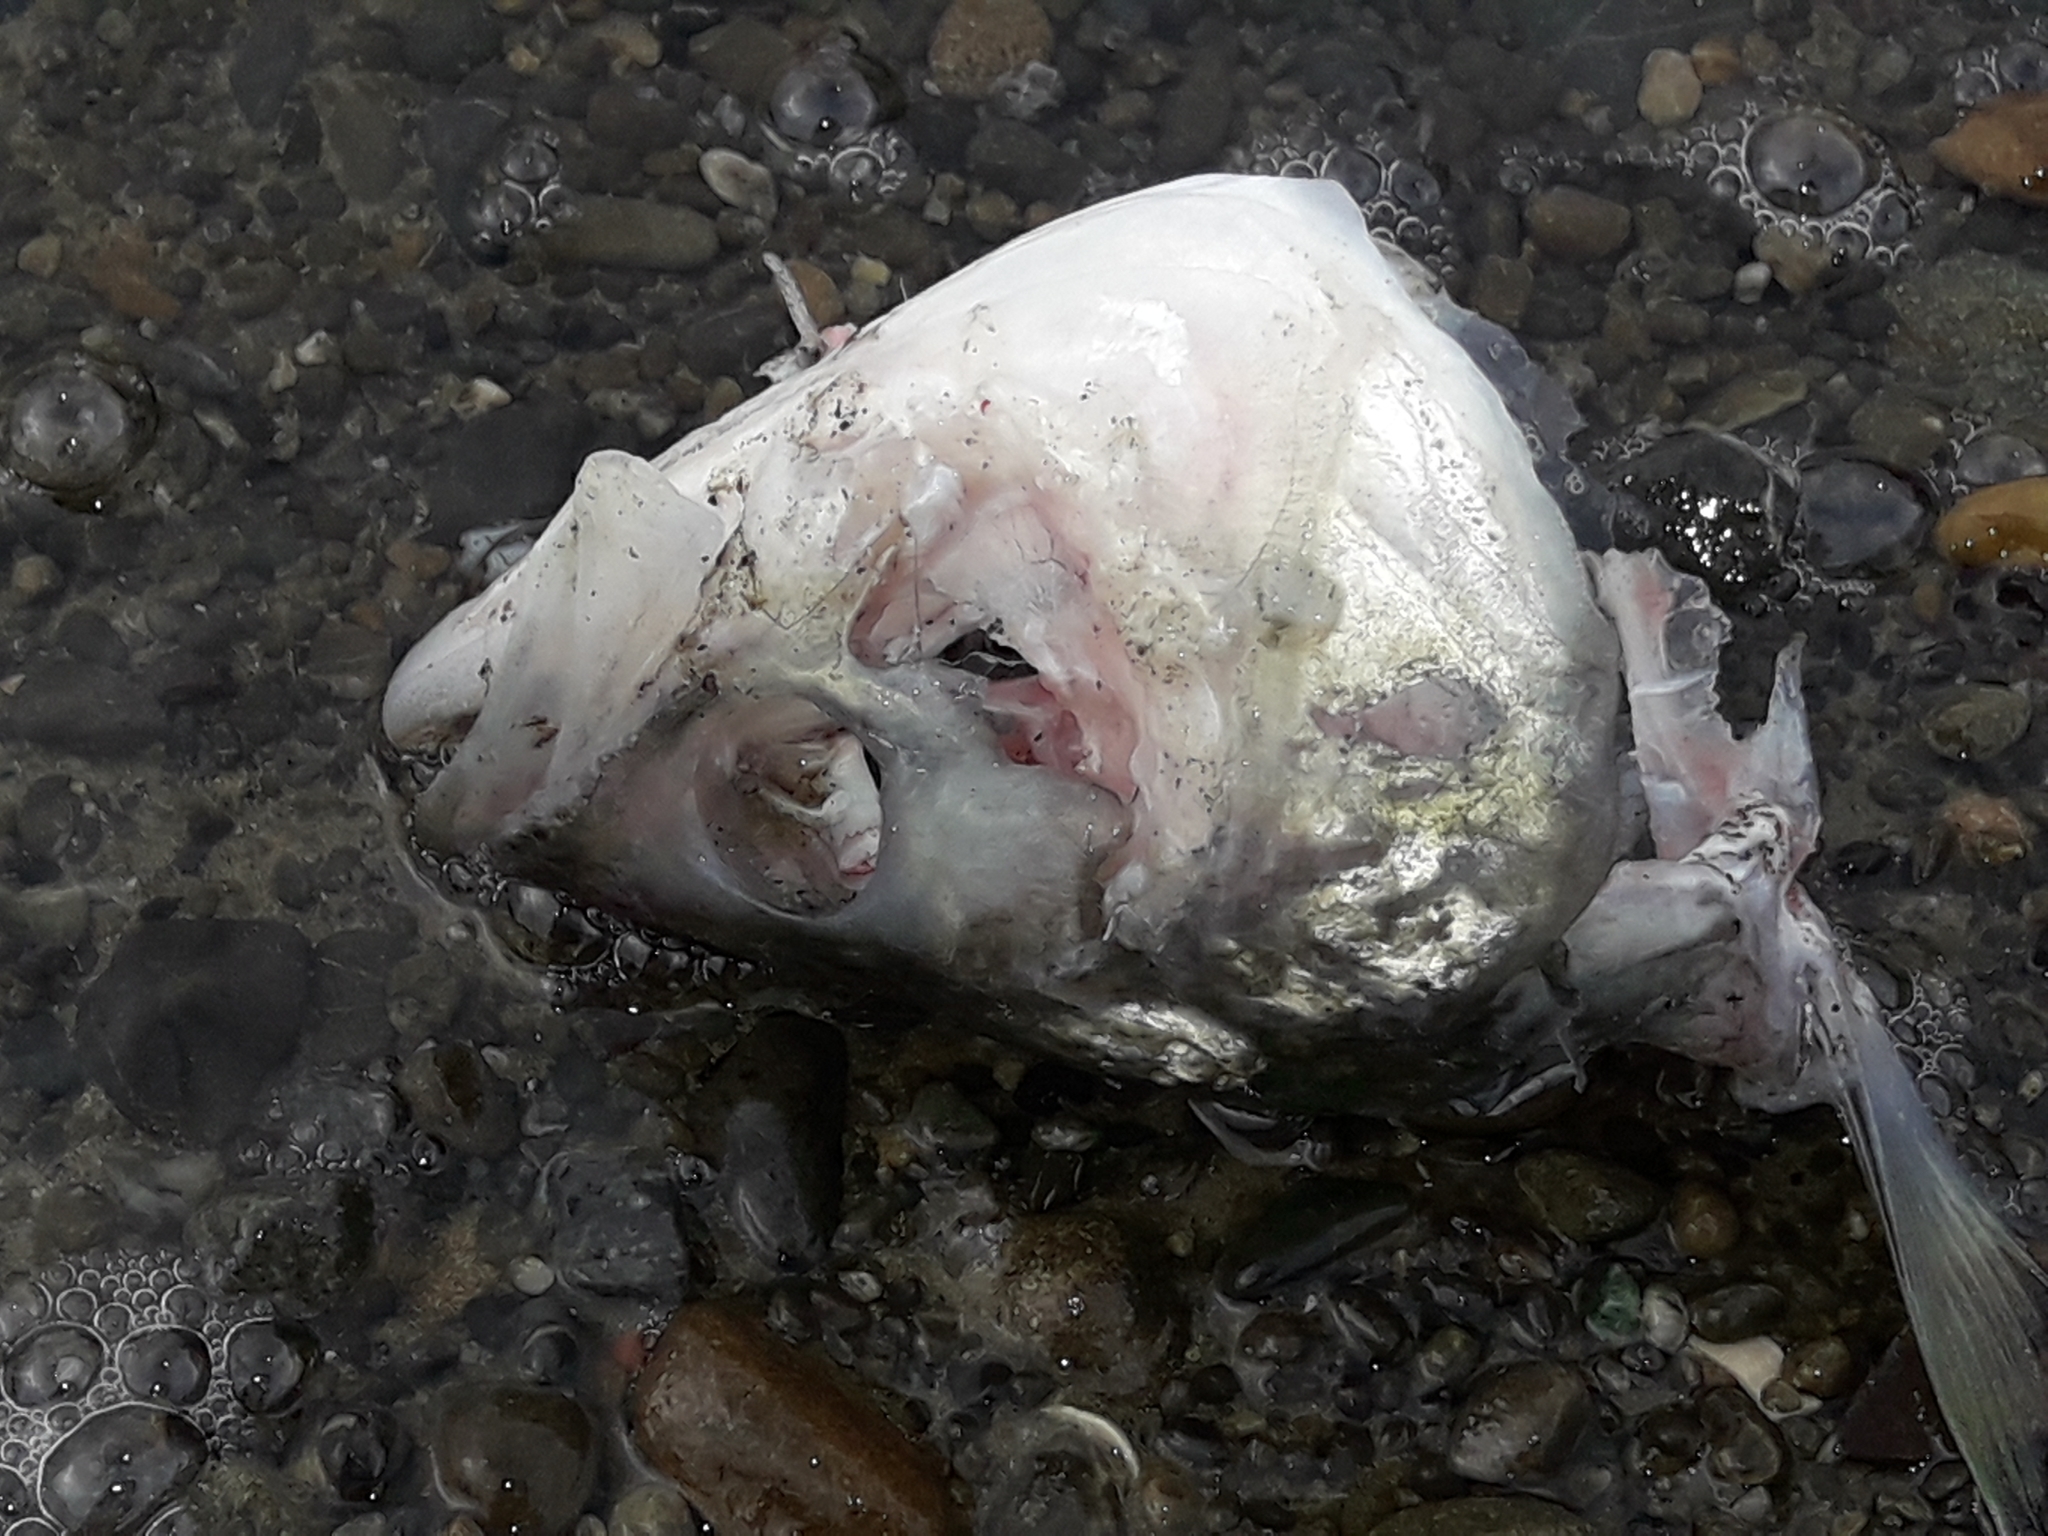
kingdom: Animalia
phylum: Chordata
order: Perciformes
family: Arripidae
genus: Arripis
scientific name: Arripis trutta
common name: Kahawai
